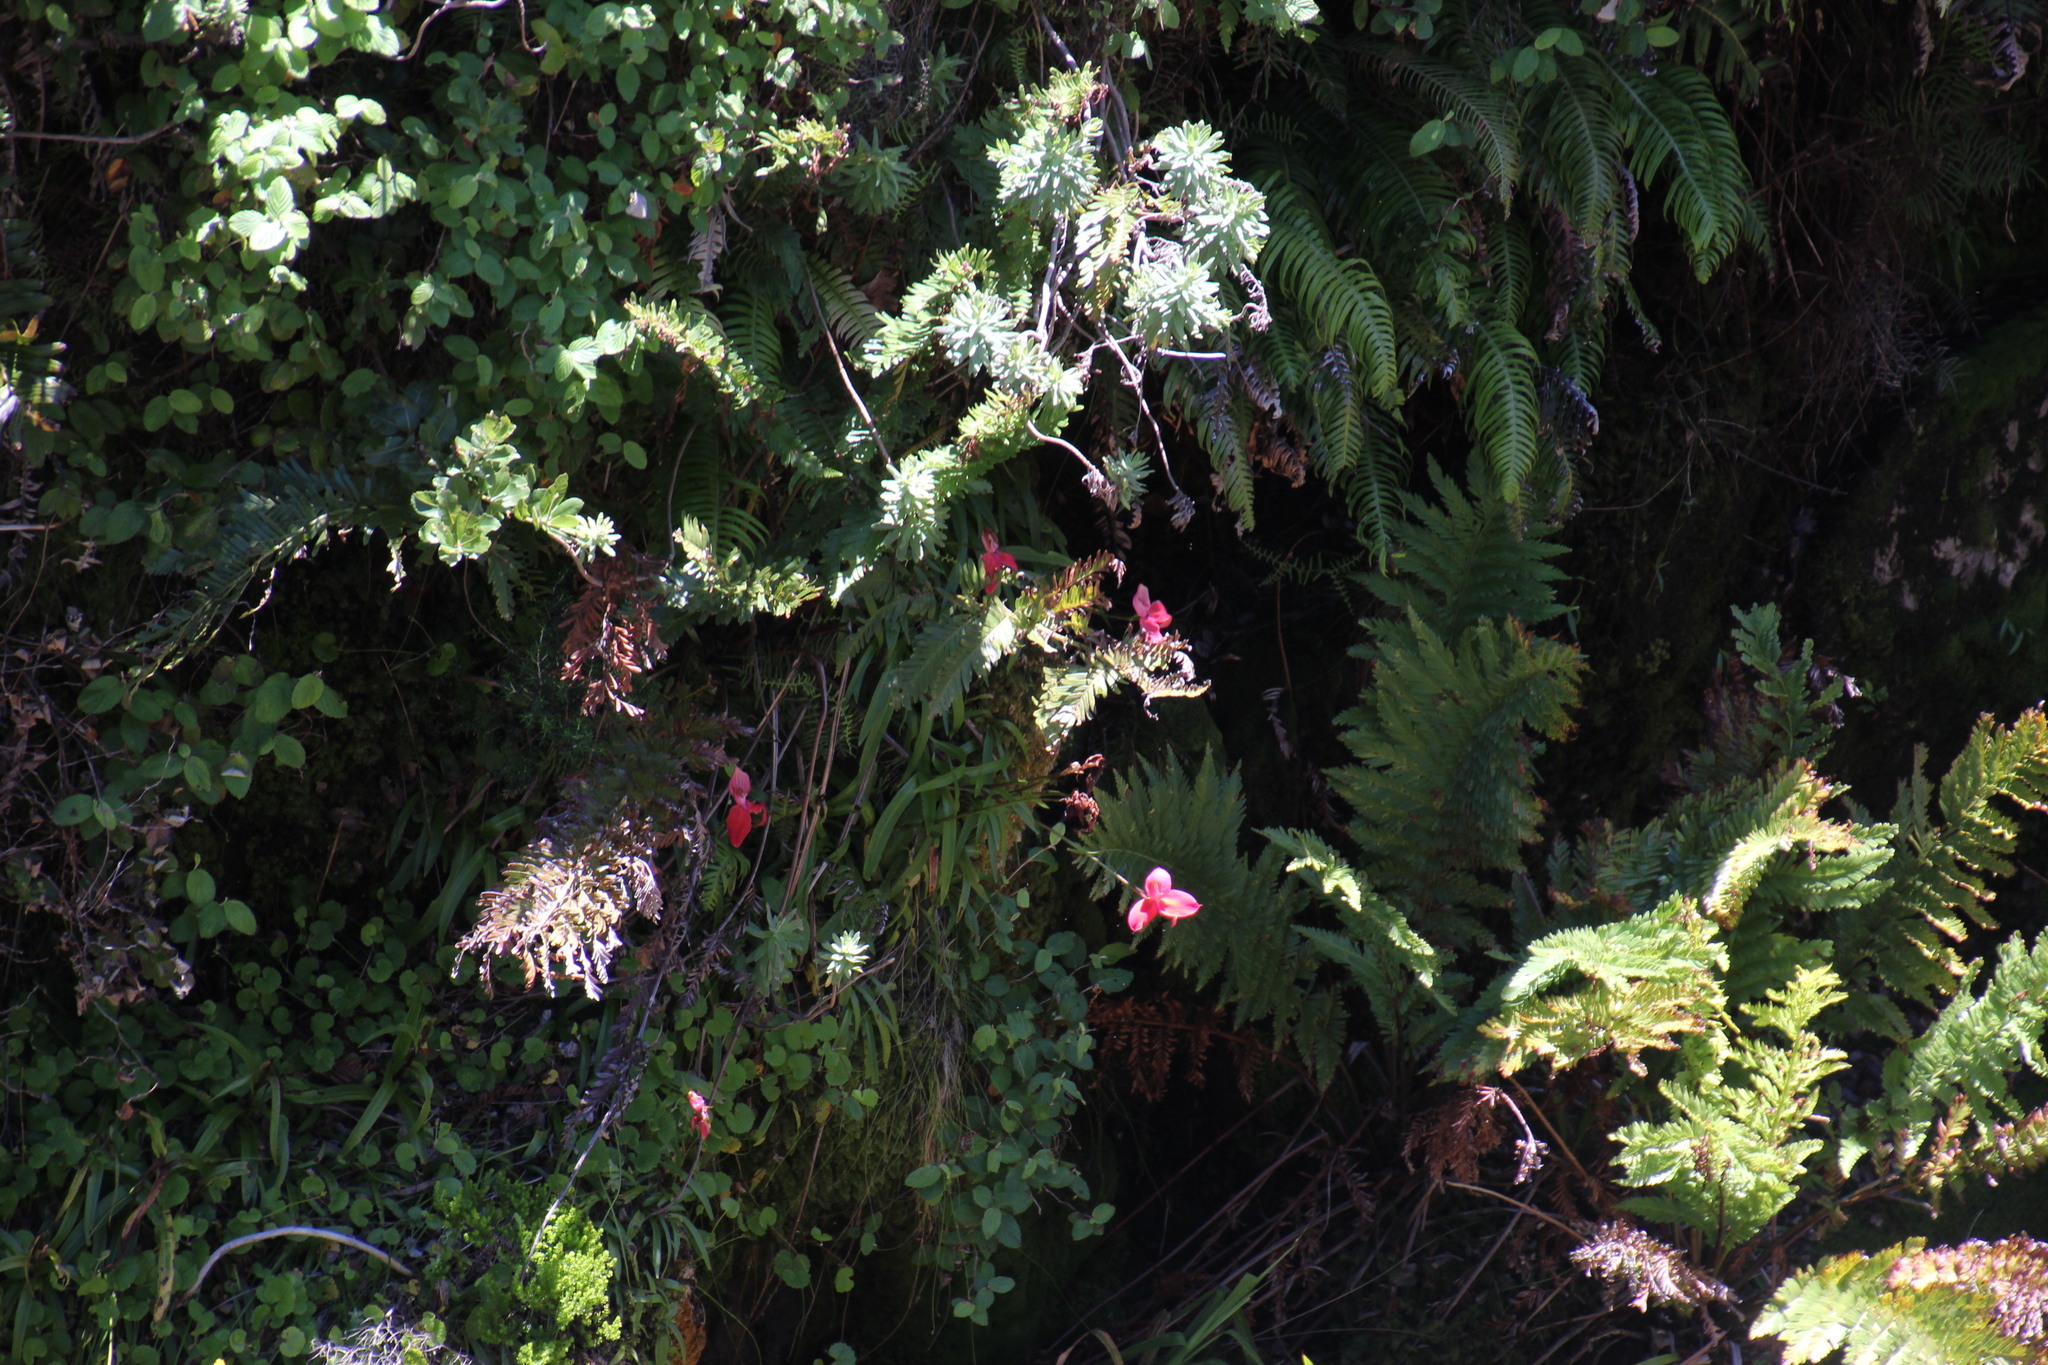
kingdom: Plantae
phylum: Tracheophyta
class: Liliopsida
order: Asparagales
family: Orchidaceae
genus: Disa
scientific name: Disa uniflora
